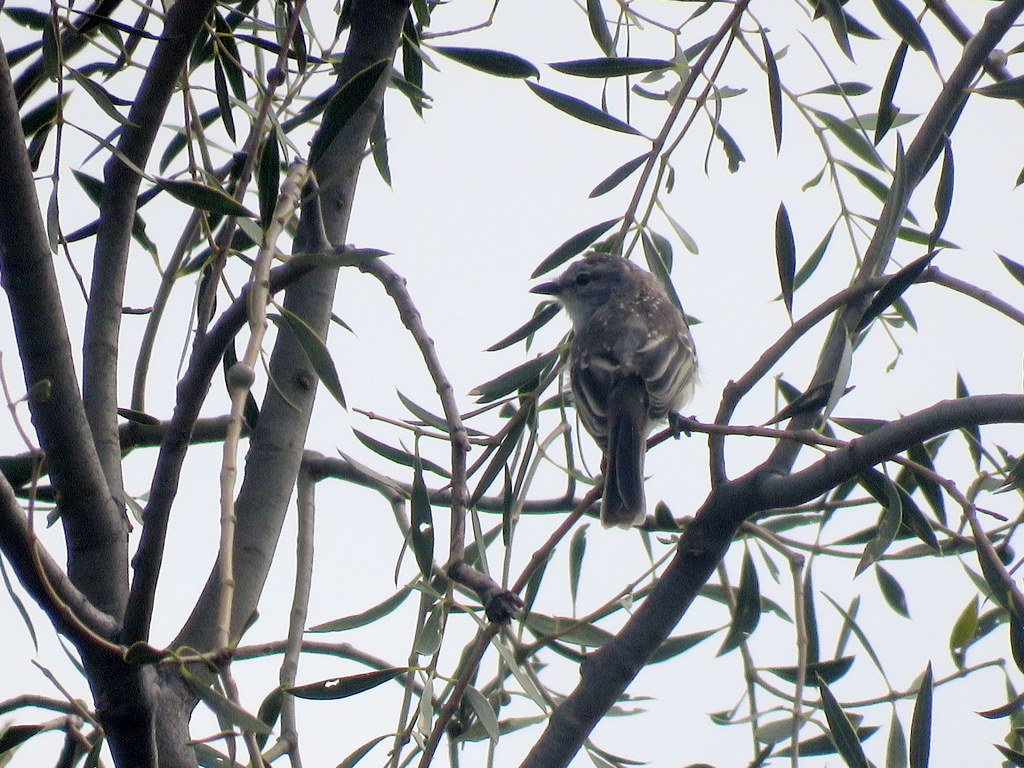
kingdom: Animalia
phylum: Chordata
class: Aves
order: Passeriformes
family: Tyrannidae
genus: Suiriri
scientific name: Suiriri suiriri
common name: Suiriri flycatcher
